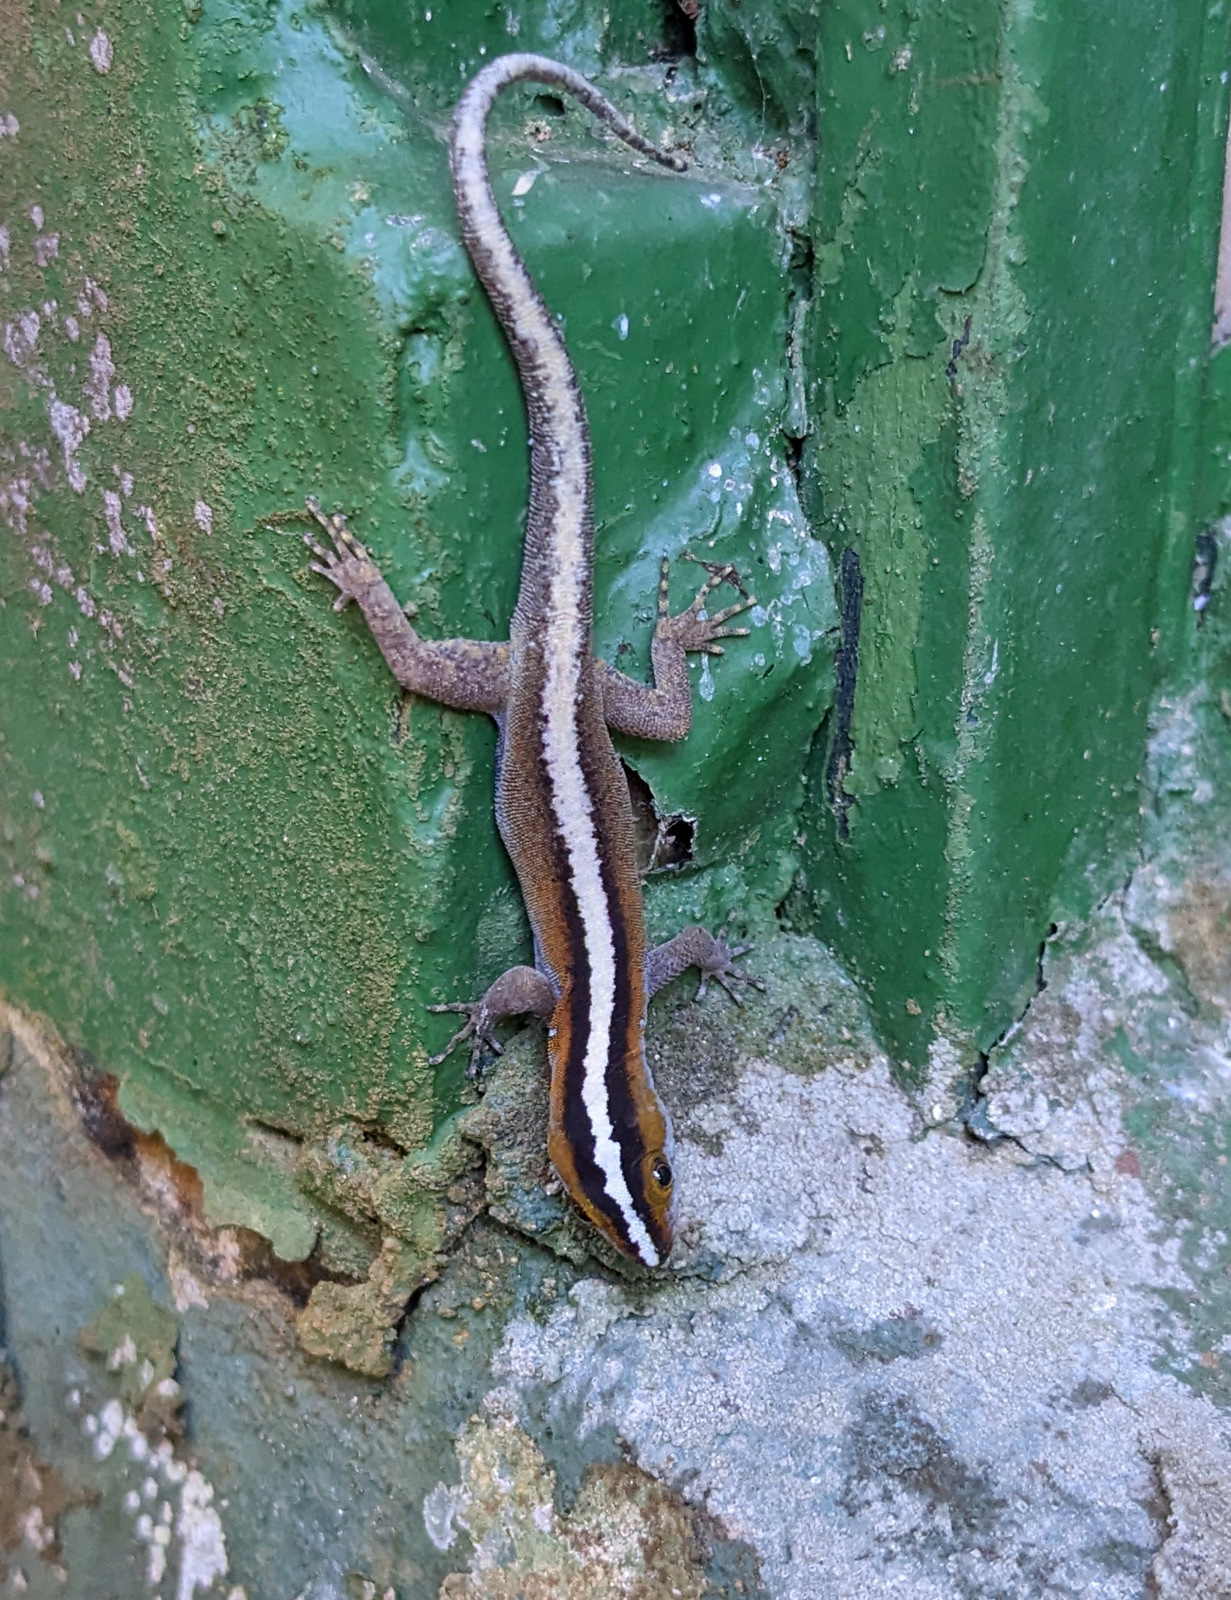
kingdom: Animalia
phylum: Chordata
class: Squamata
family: Sphaerodactylidae
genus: Gonatodes
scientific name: Gonatodes vittatus
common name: Wiegmann's striped gecko
